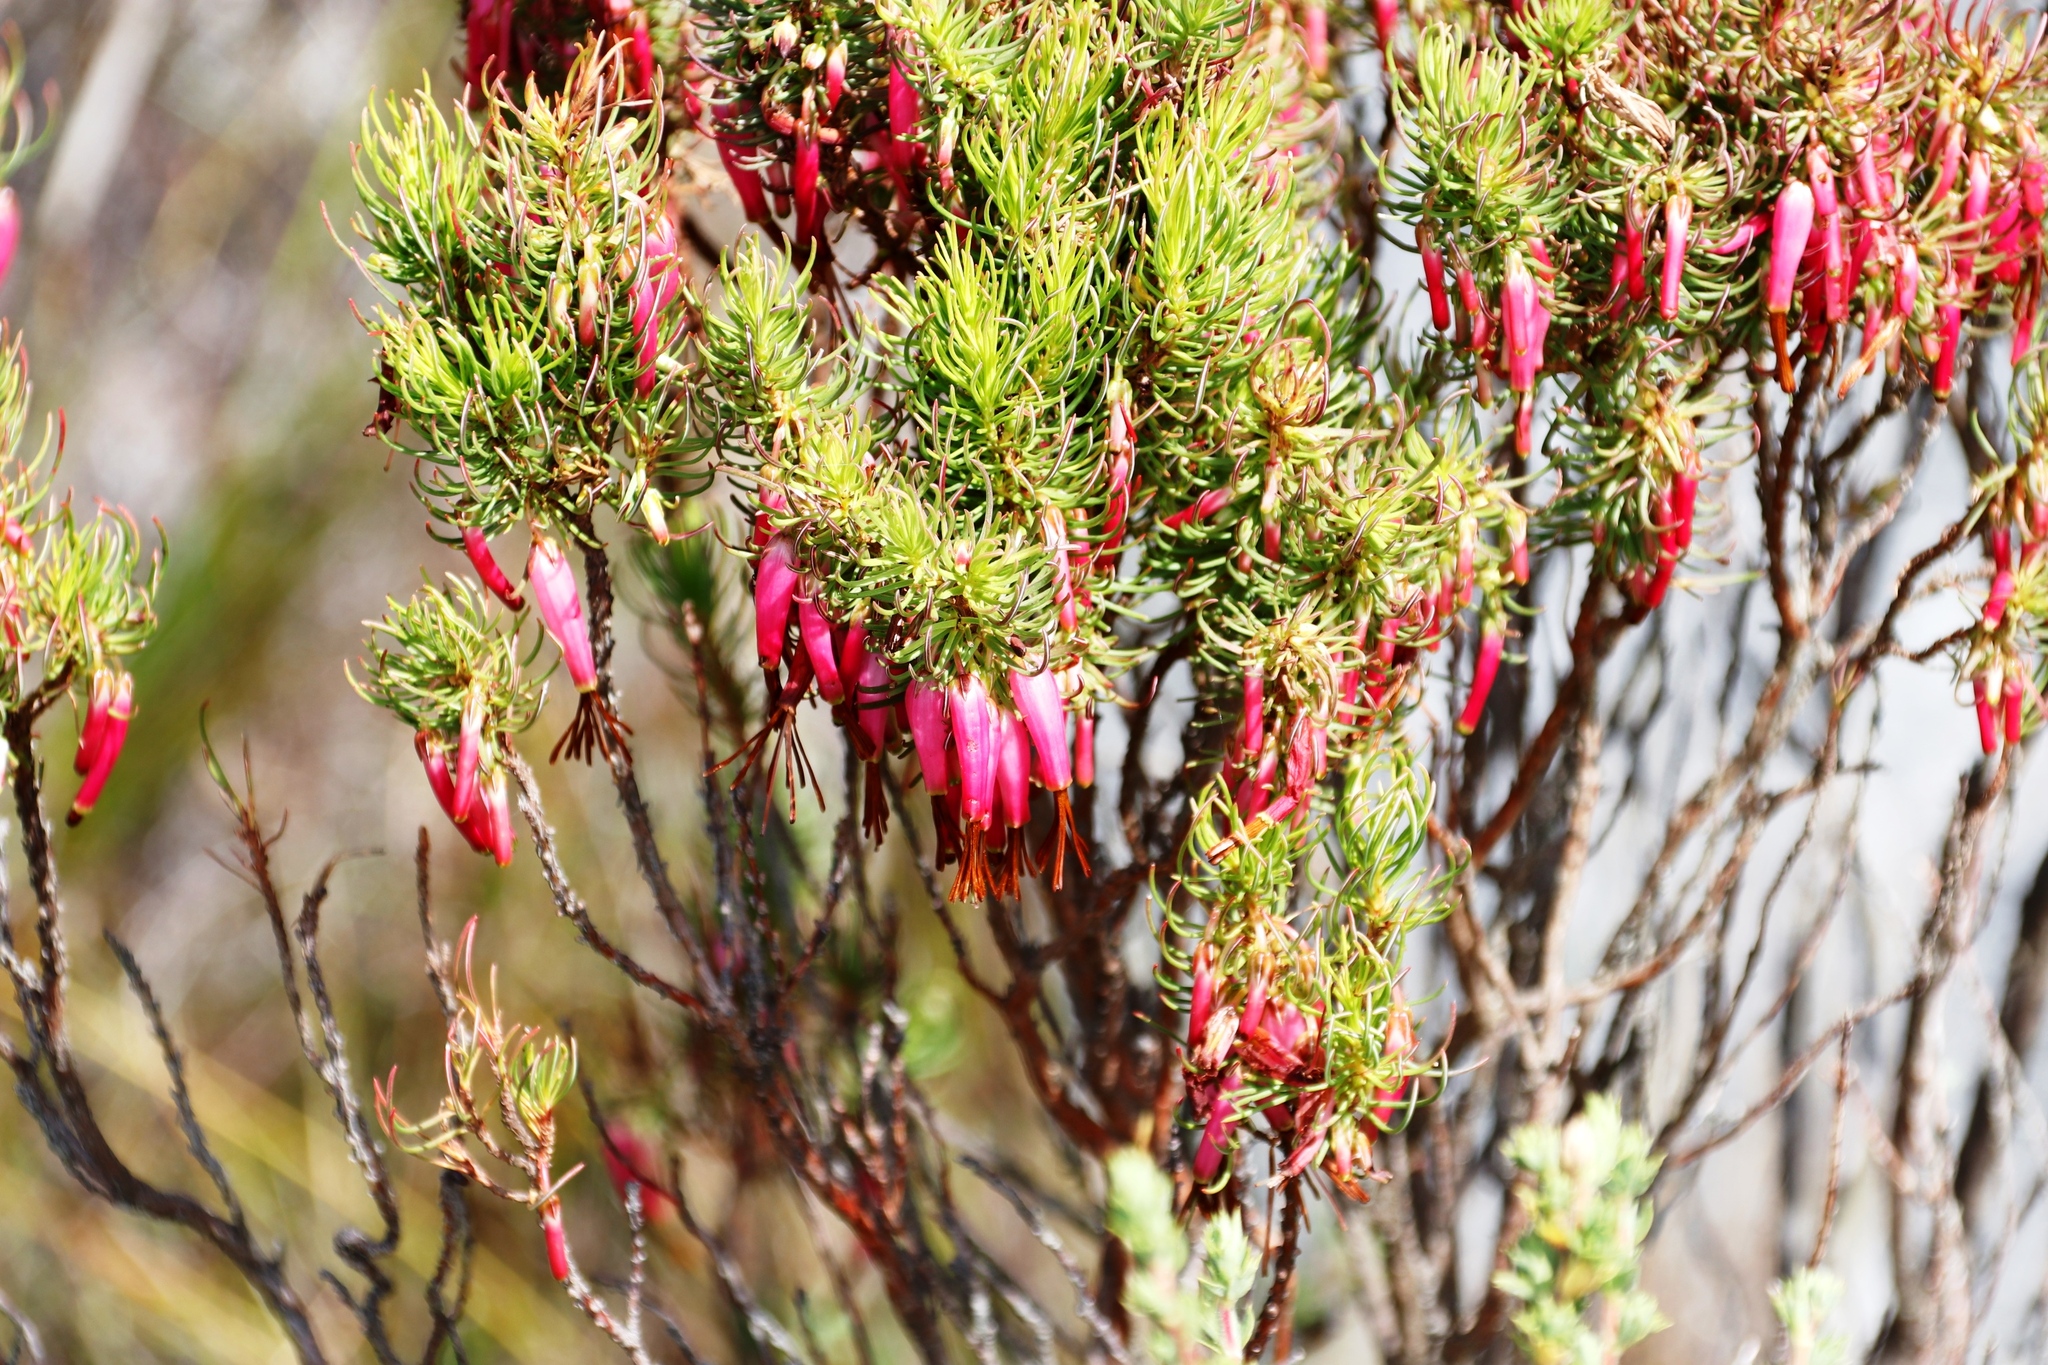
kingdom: Plantae
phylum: Tracheophyta
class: Magnoliopsida
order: Ericales
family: Ericaceae
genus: Erica
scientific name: Erica plukenetii
